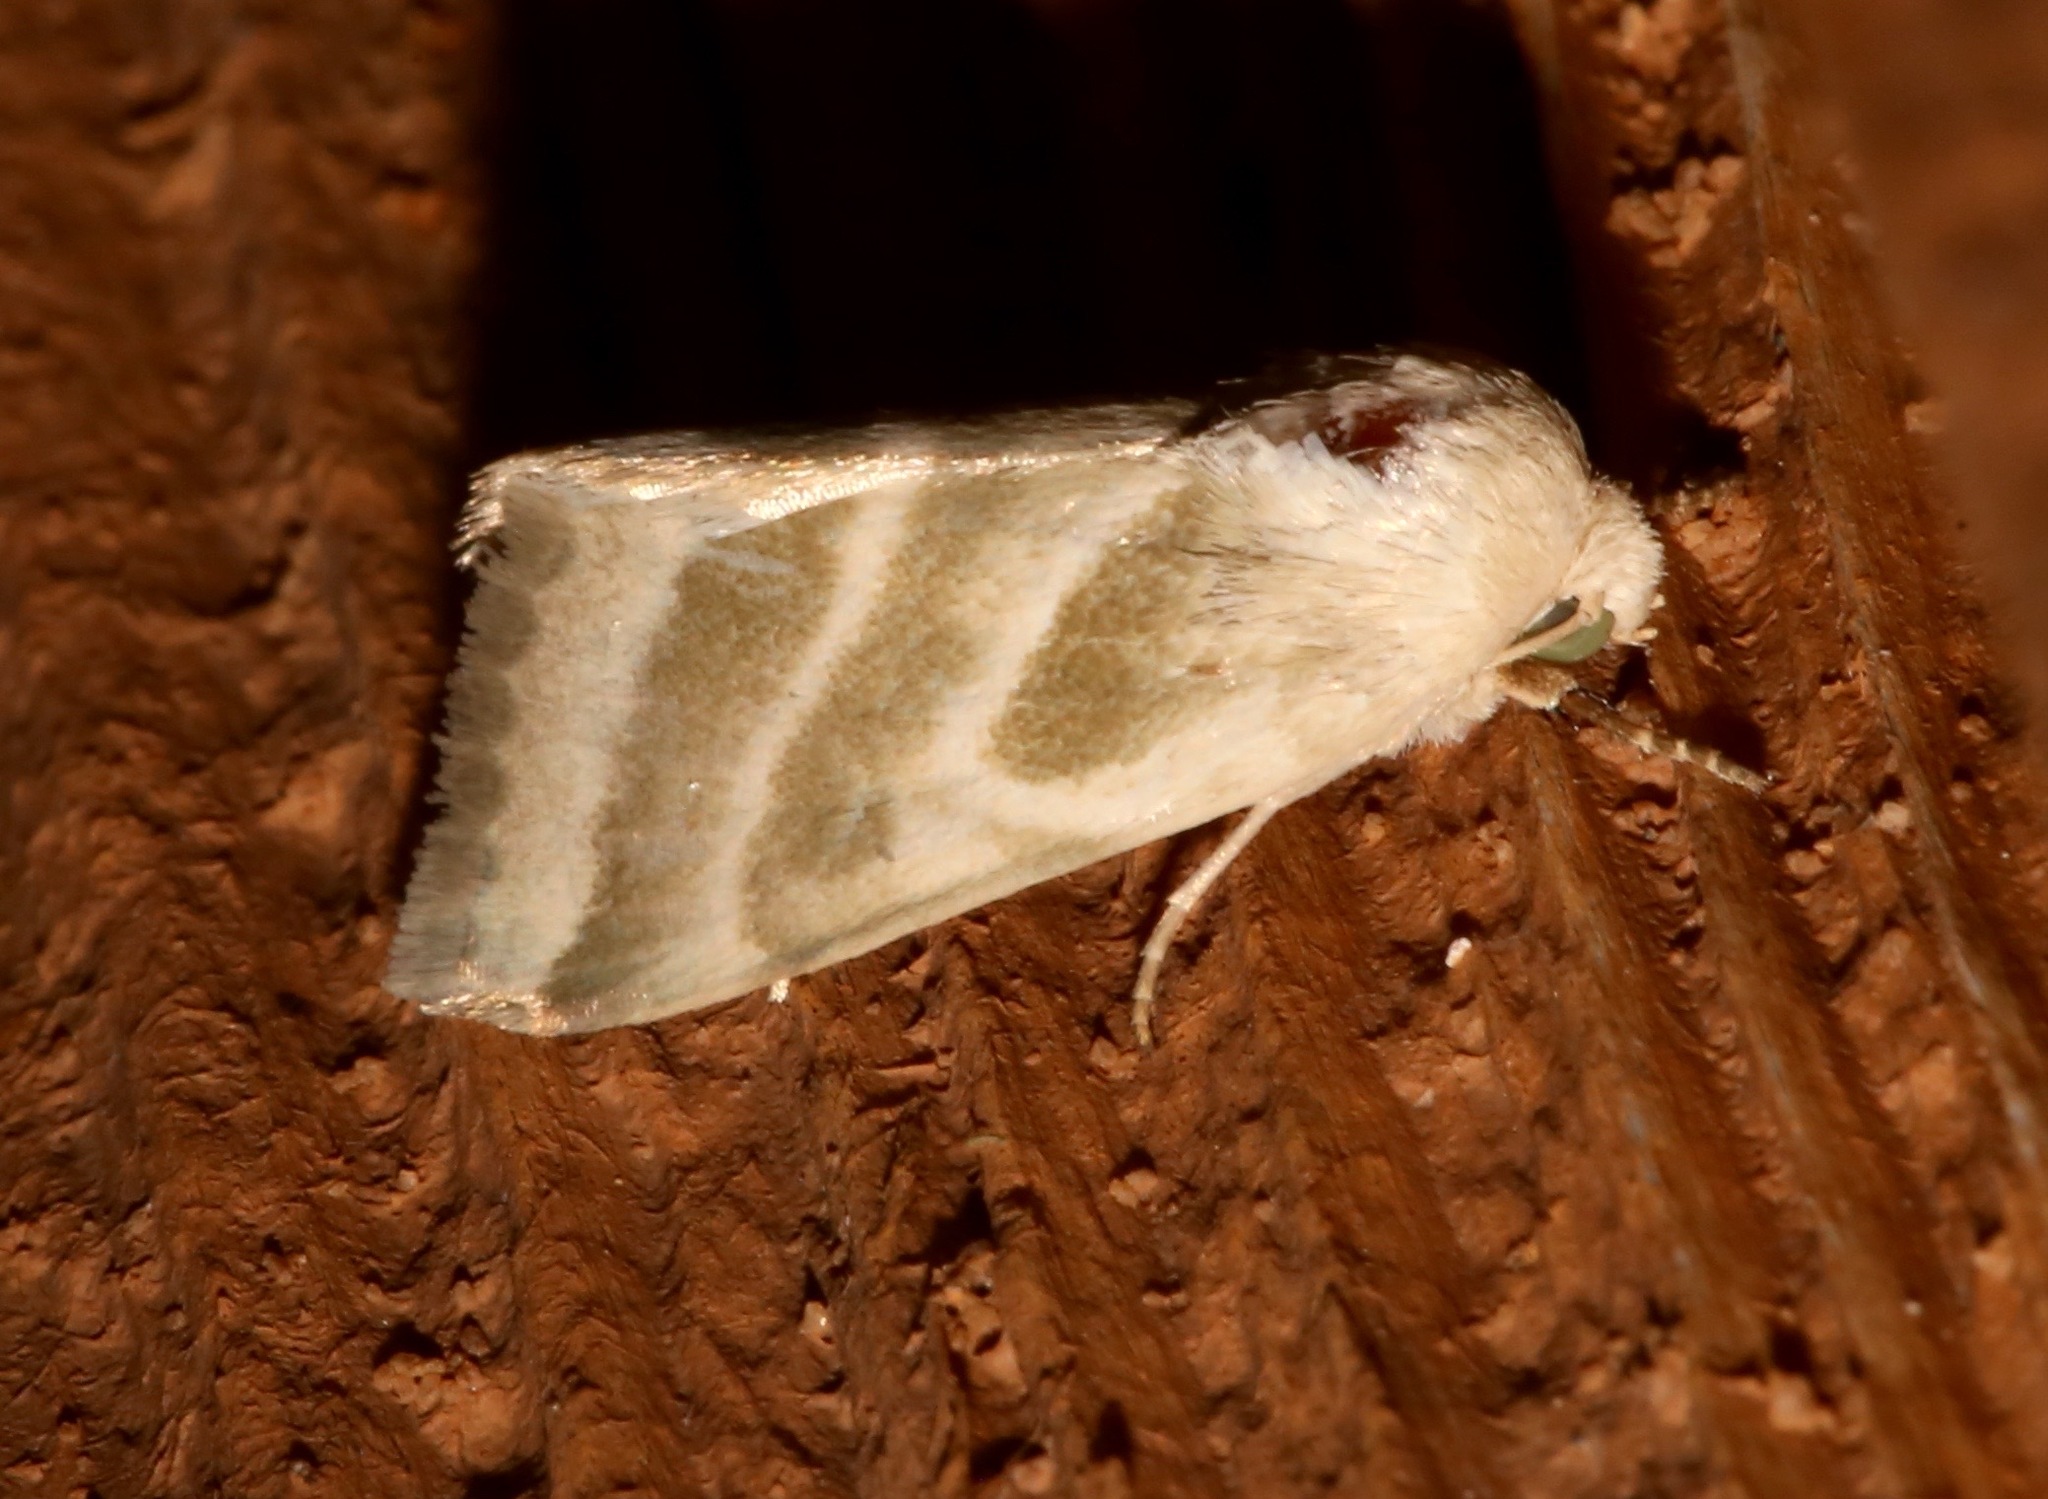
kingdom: Animalia
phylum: Arthropoda
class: Insecta
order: Lepidoptera
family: Noctuidae
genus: Schinia
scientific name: Schinia trifascia
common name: Three-lined flower moth
